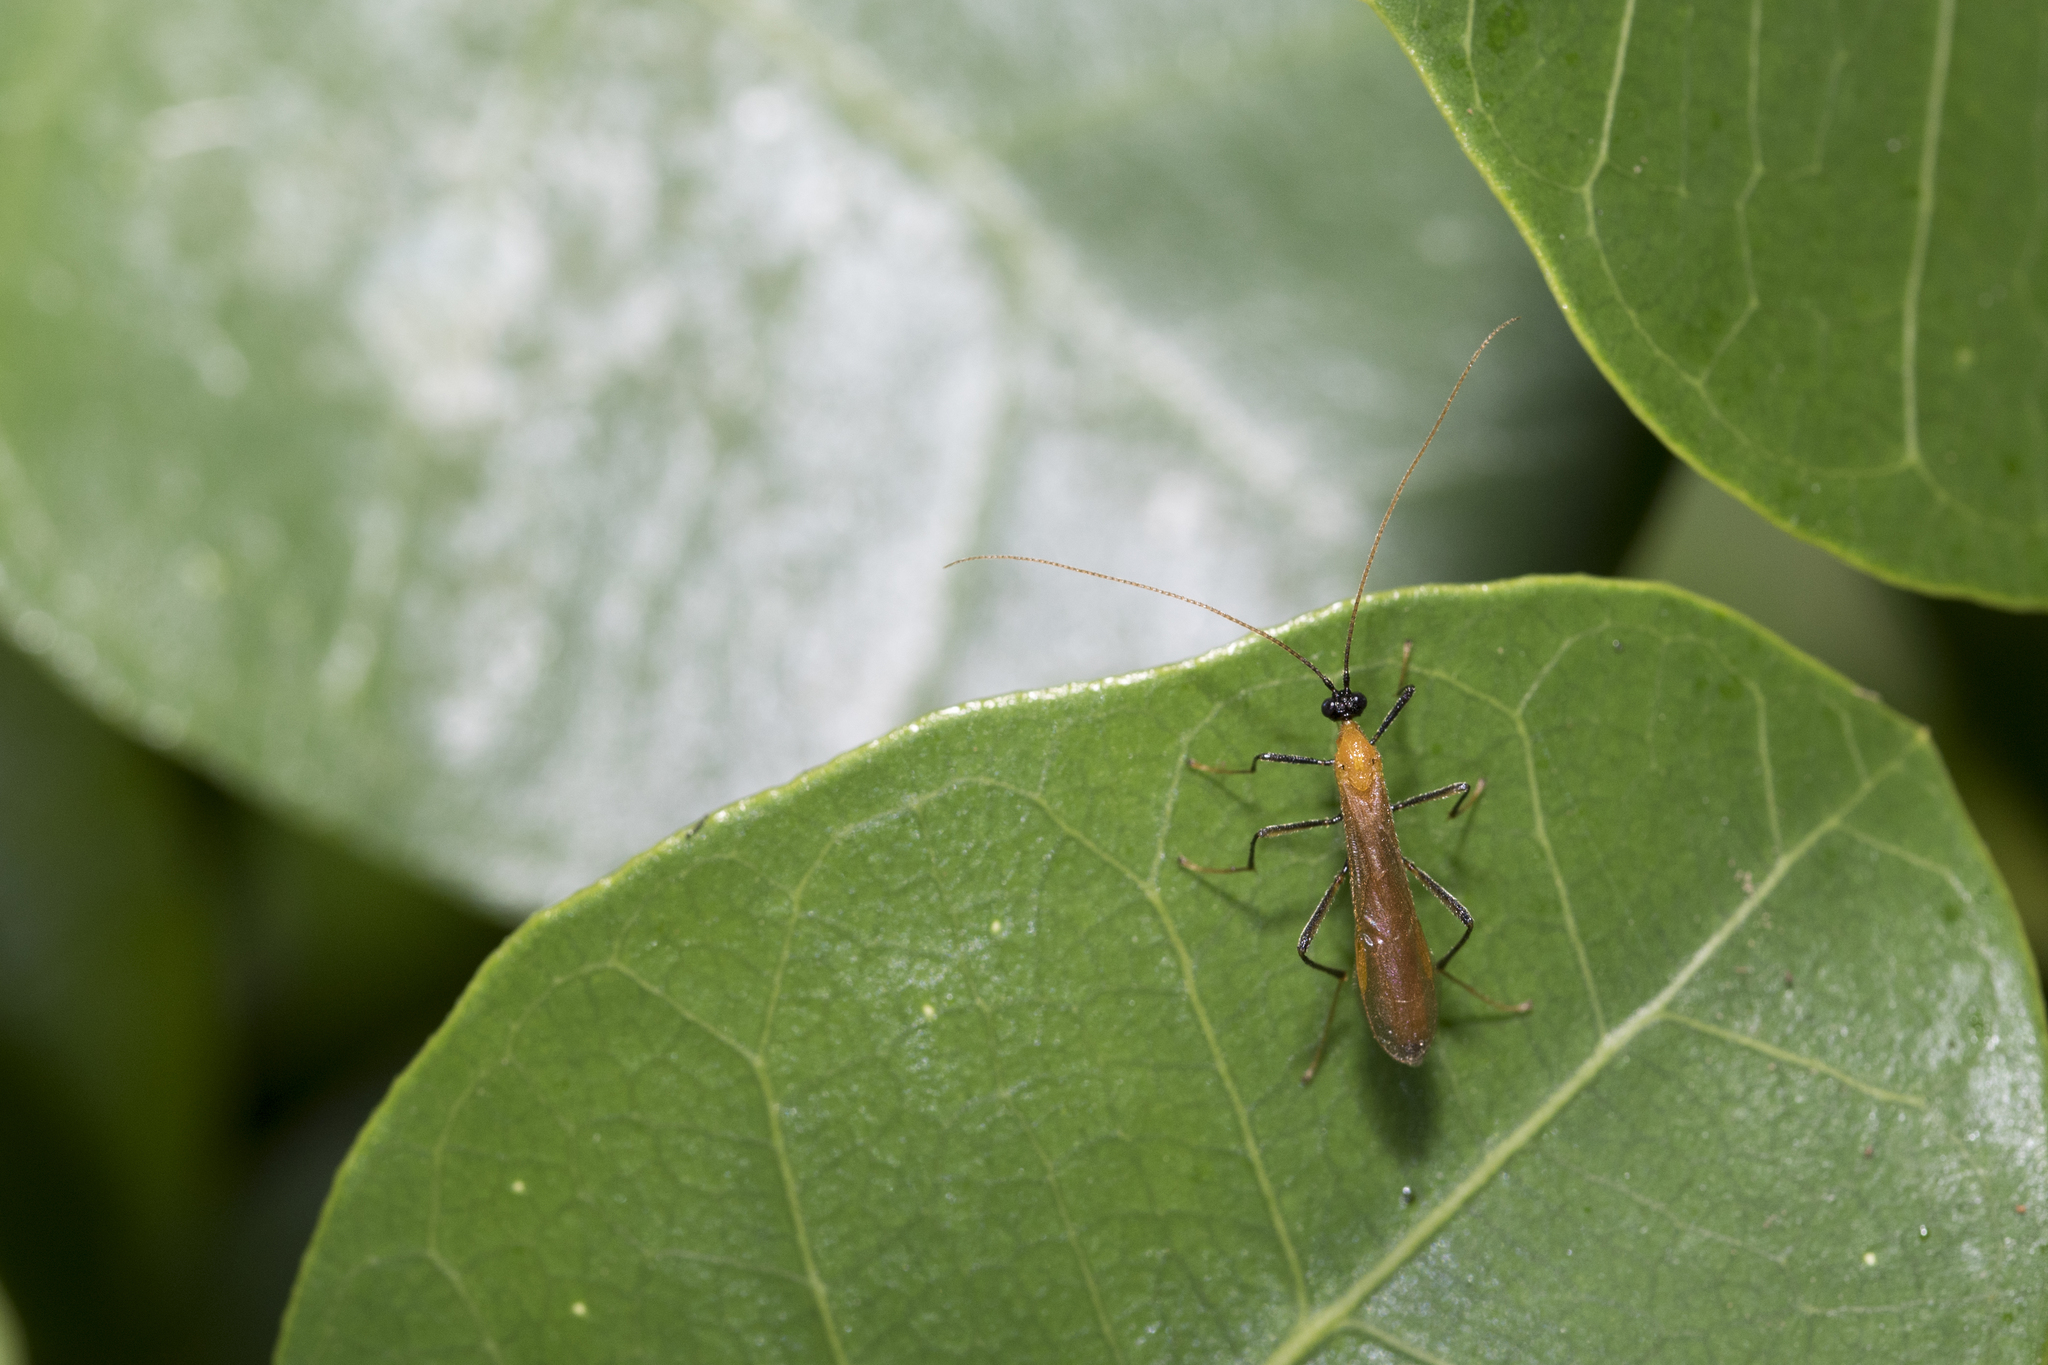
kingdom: Animalia
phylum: Arthropoda
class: Insecta
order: Hymenoptera
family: Braconidae
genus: Megarhogas
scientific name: Megarhogas perinae
